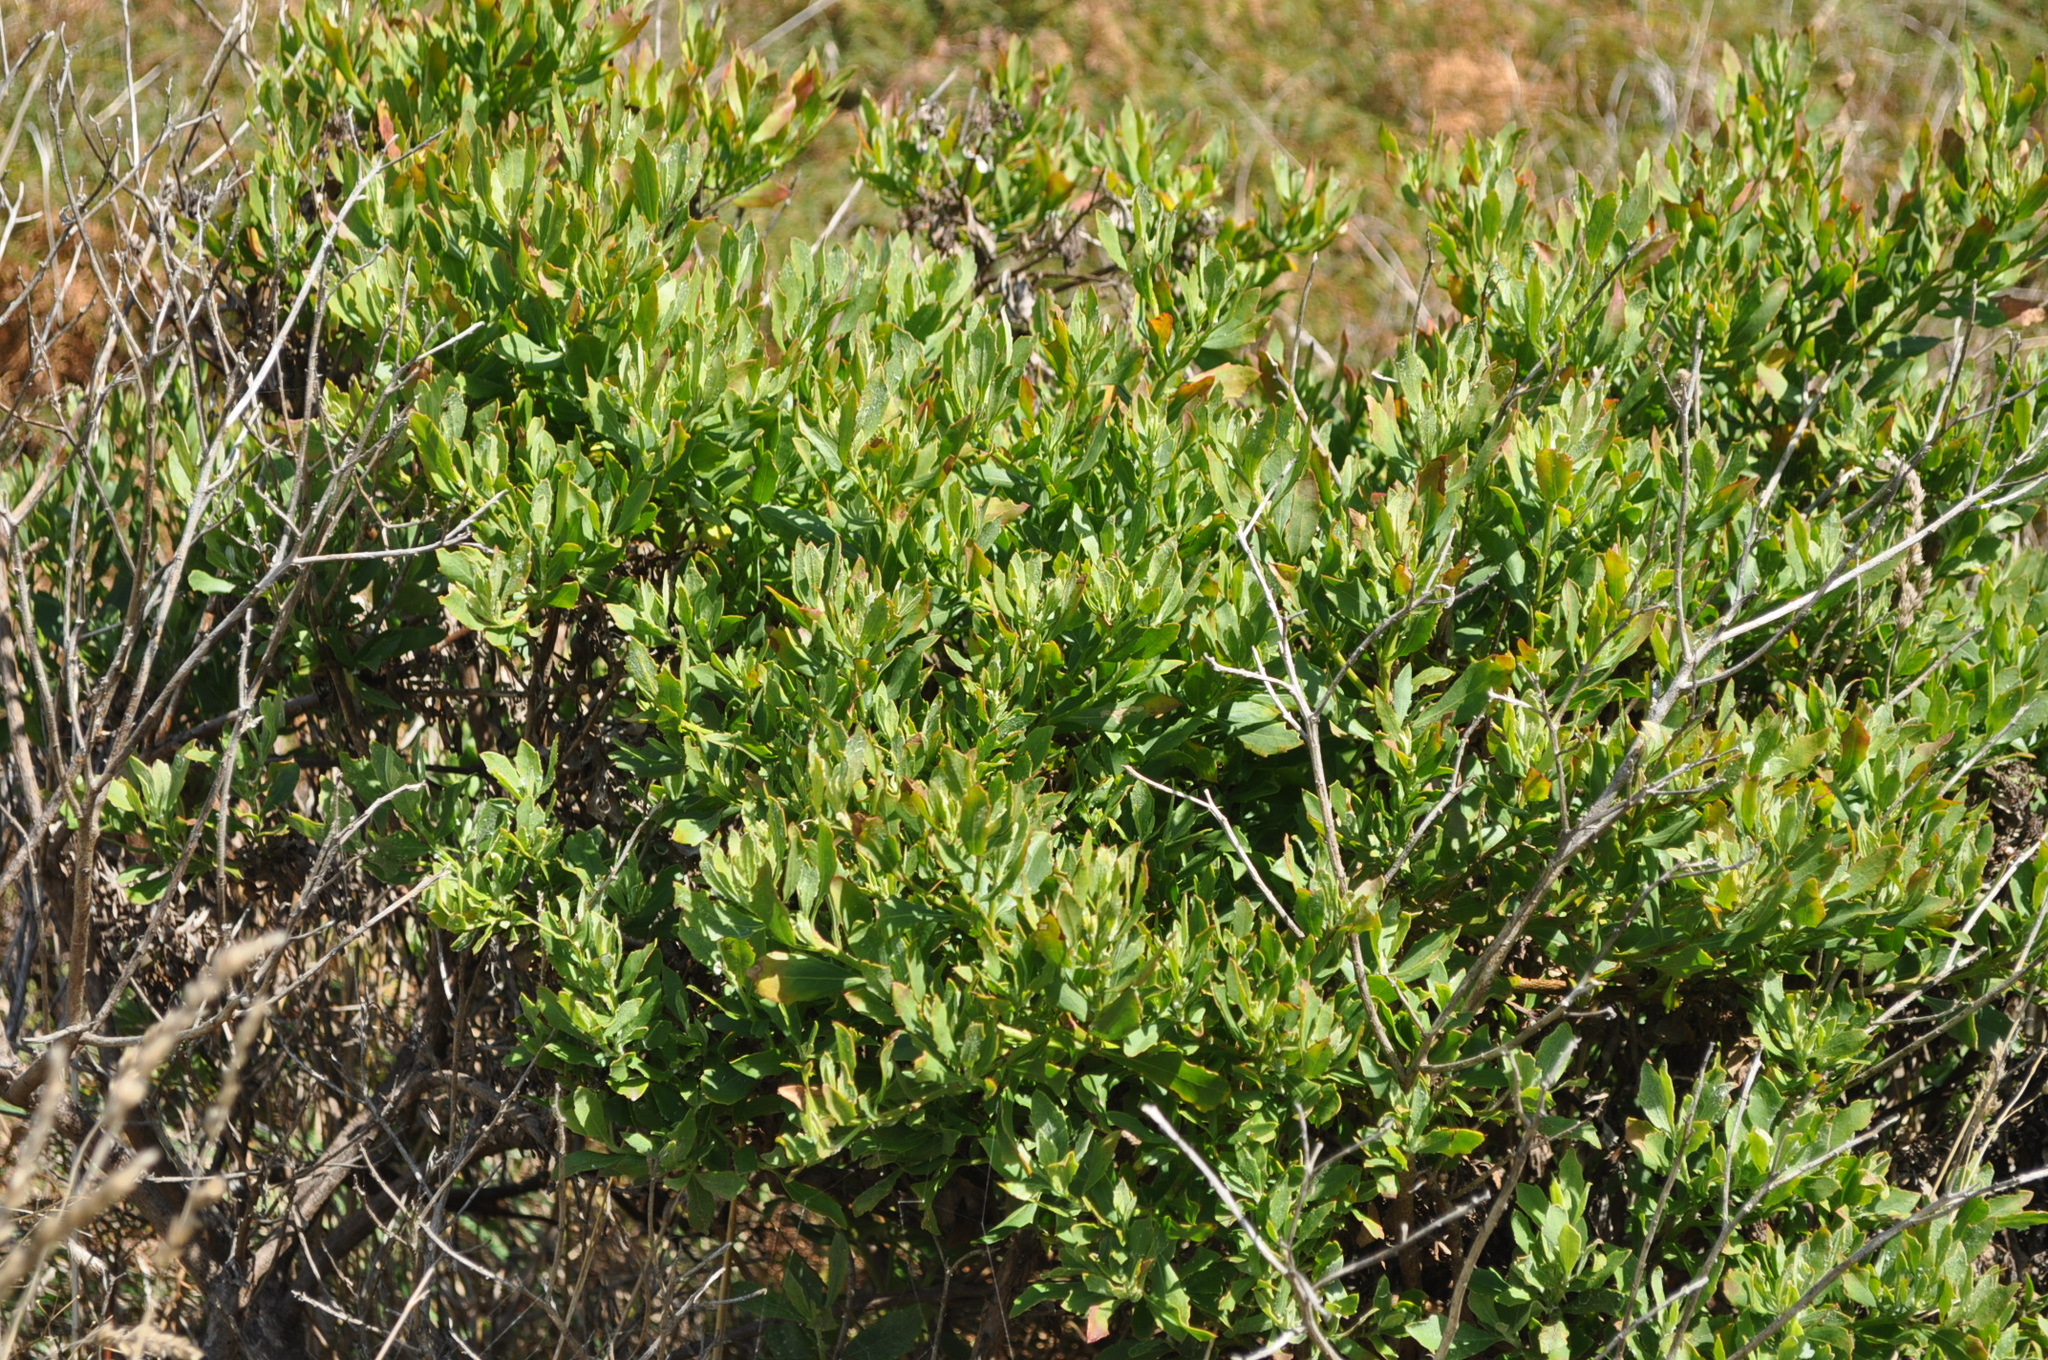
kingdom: Plantae
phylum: Tracheophyta
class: Magnoliopsida
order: Asterales
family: Asteraceae
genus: Osteospermum
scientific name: Osteospermum moniliferum
